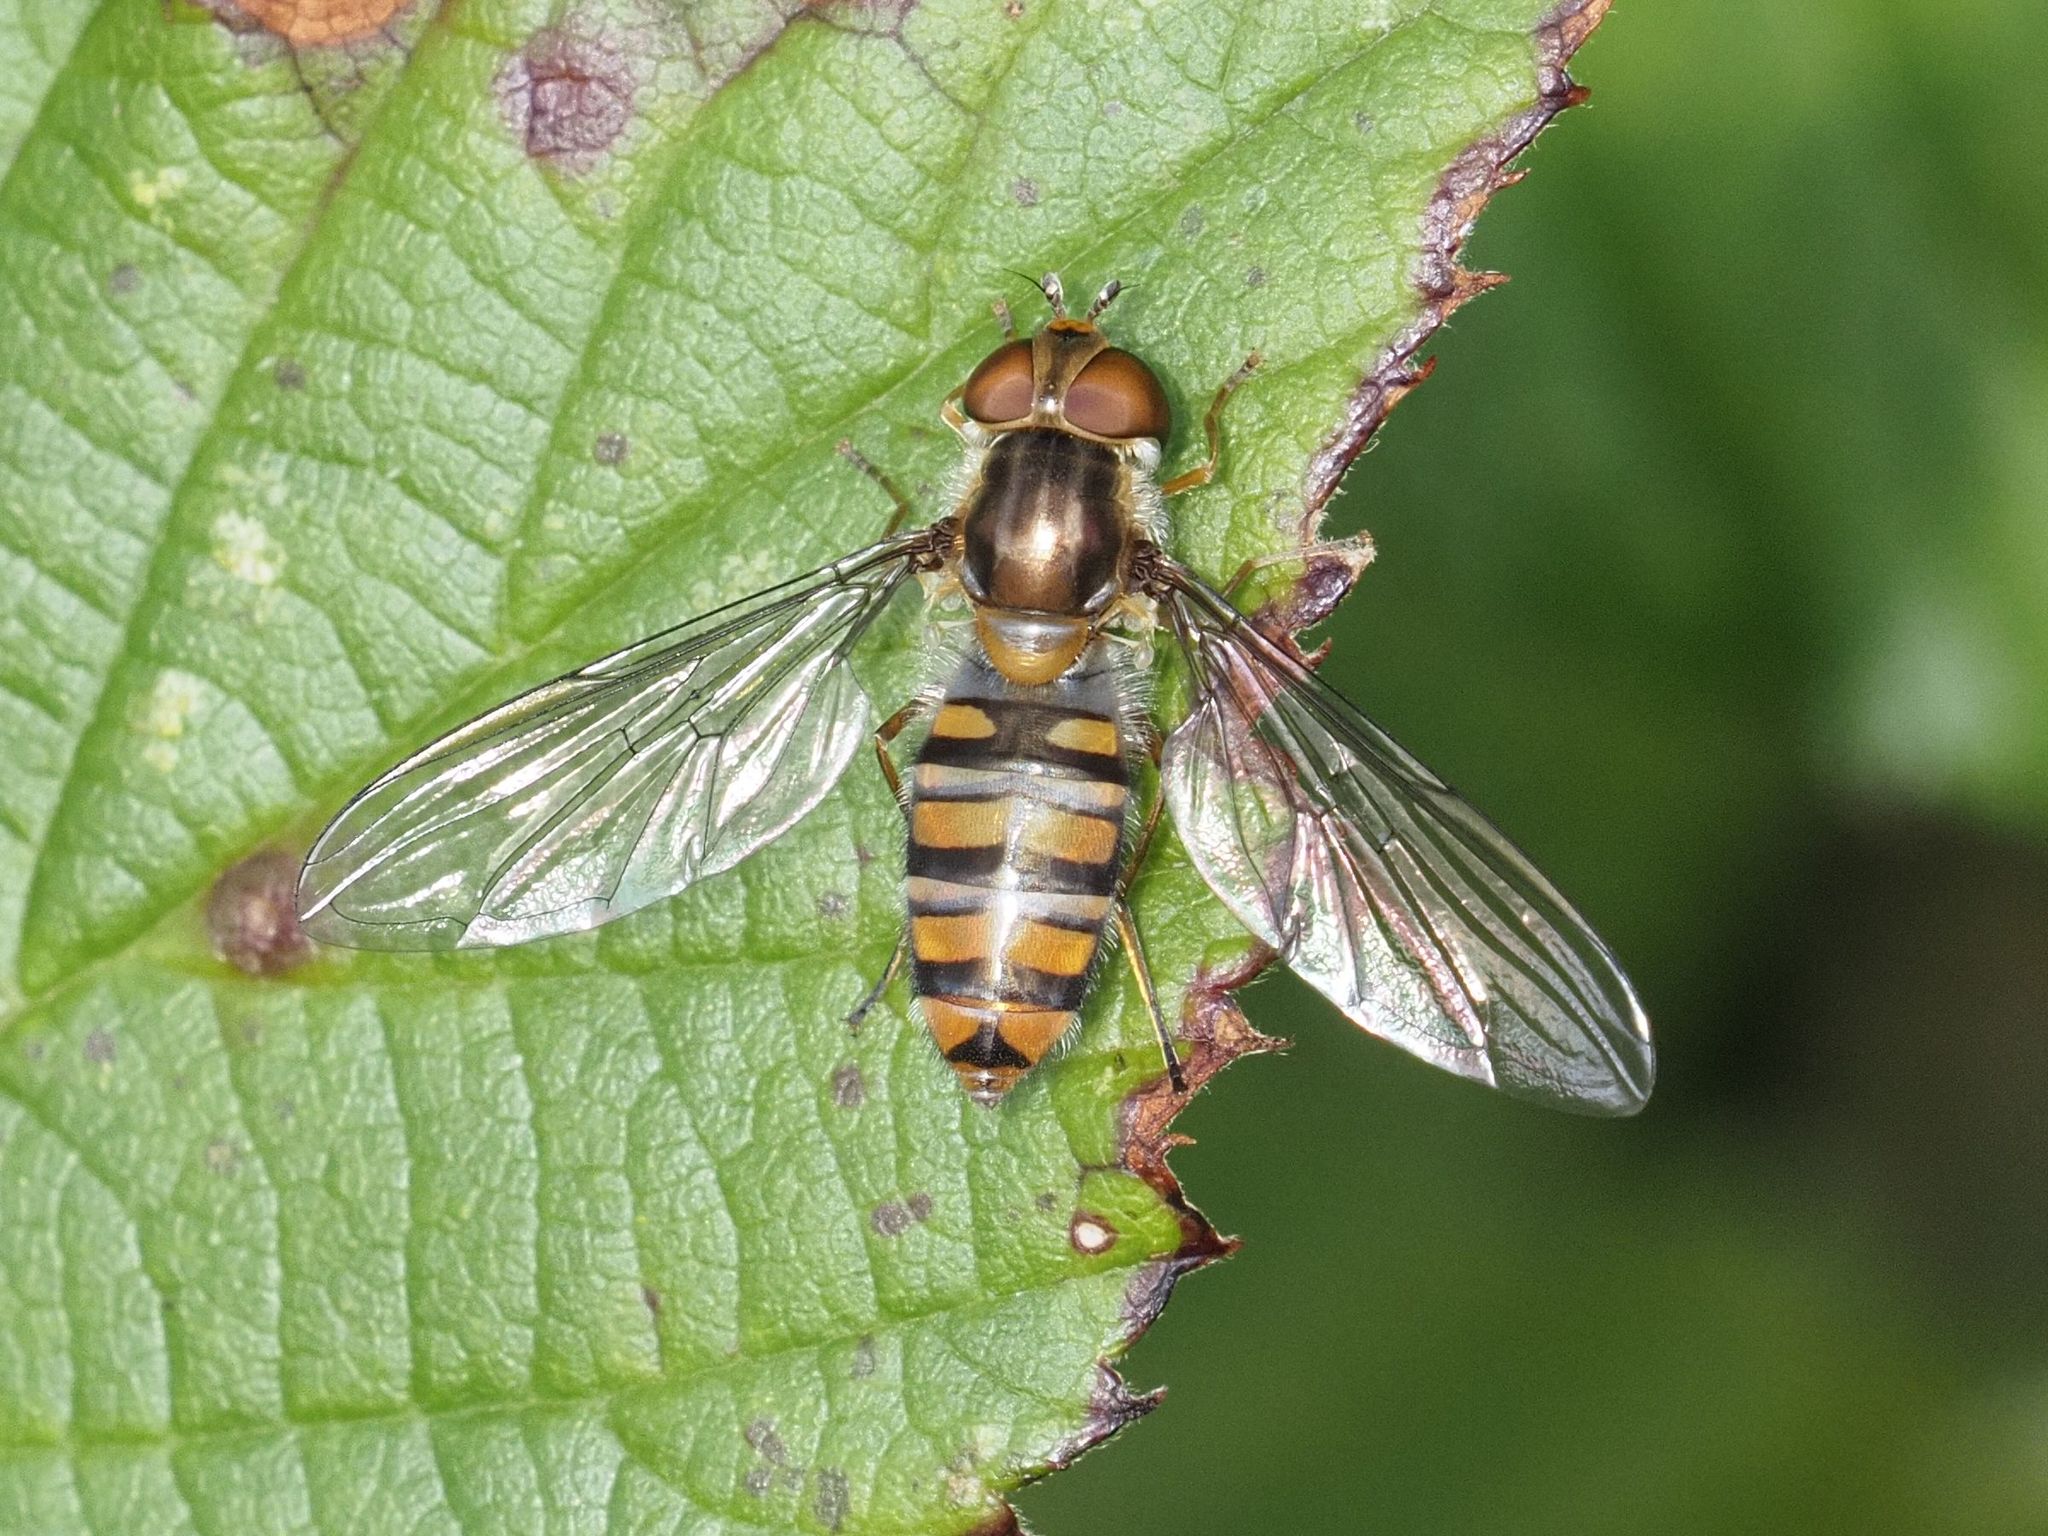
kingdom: Animalia
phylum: Arthropoda
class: Insecta
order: Diptera
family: Syrphidae
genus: Episyrphus
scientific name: Episyrphus balteatus
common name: Marmalade hoverfly
